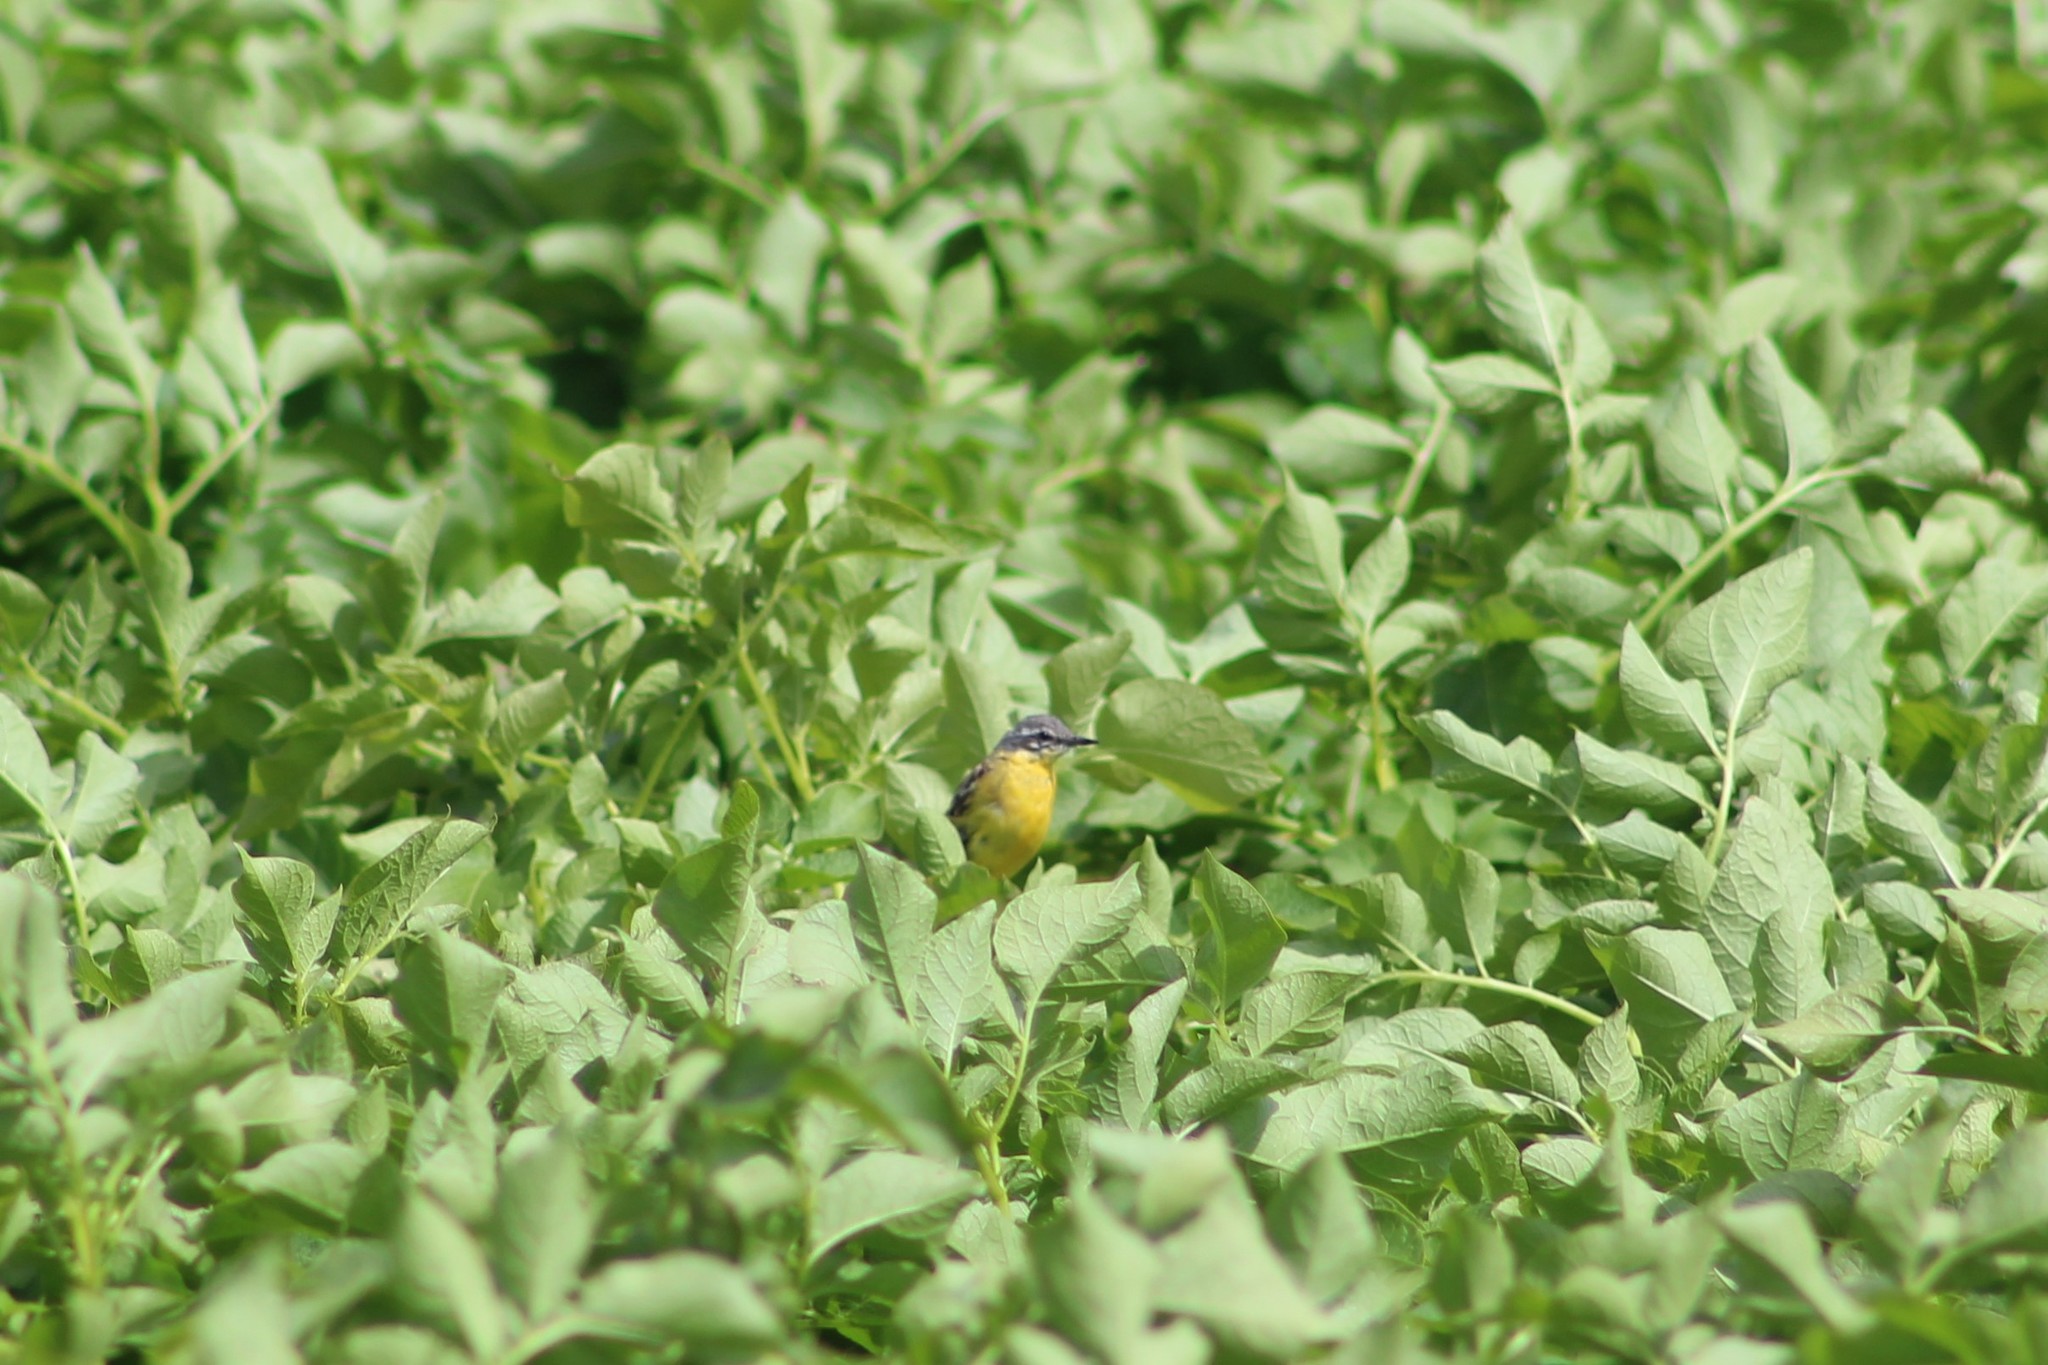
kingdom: Animalia
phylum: Chordata
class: Aves
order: Passeriformes
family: Motacillidae
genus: Motacilla
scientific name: Motacilla flava
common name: Western yellow wagtail
